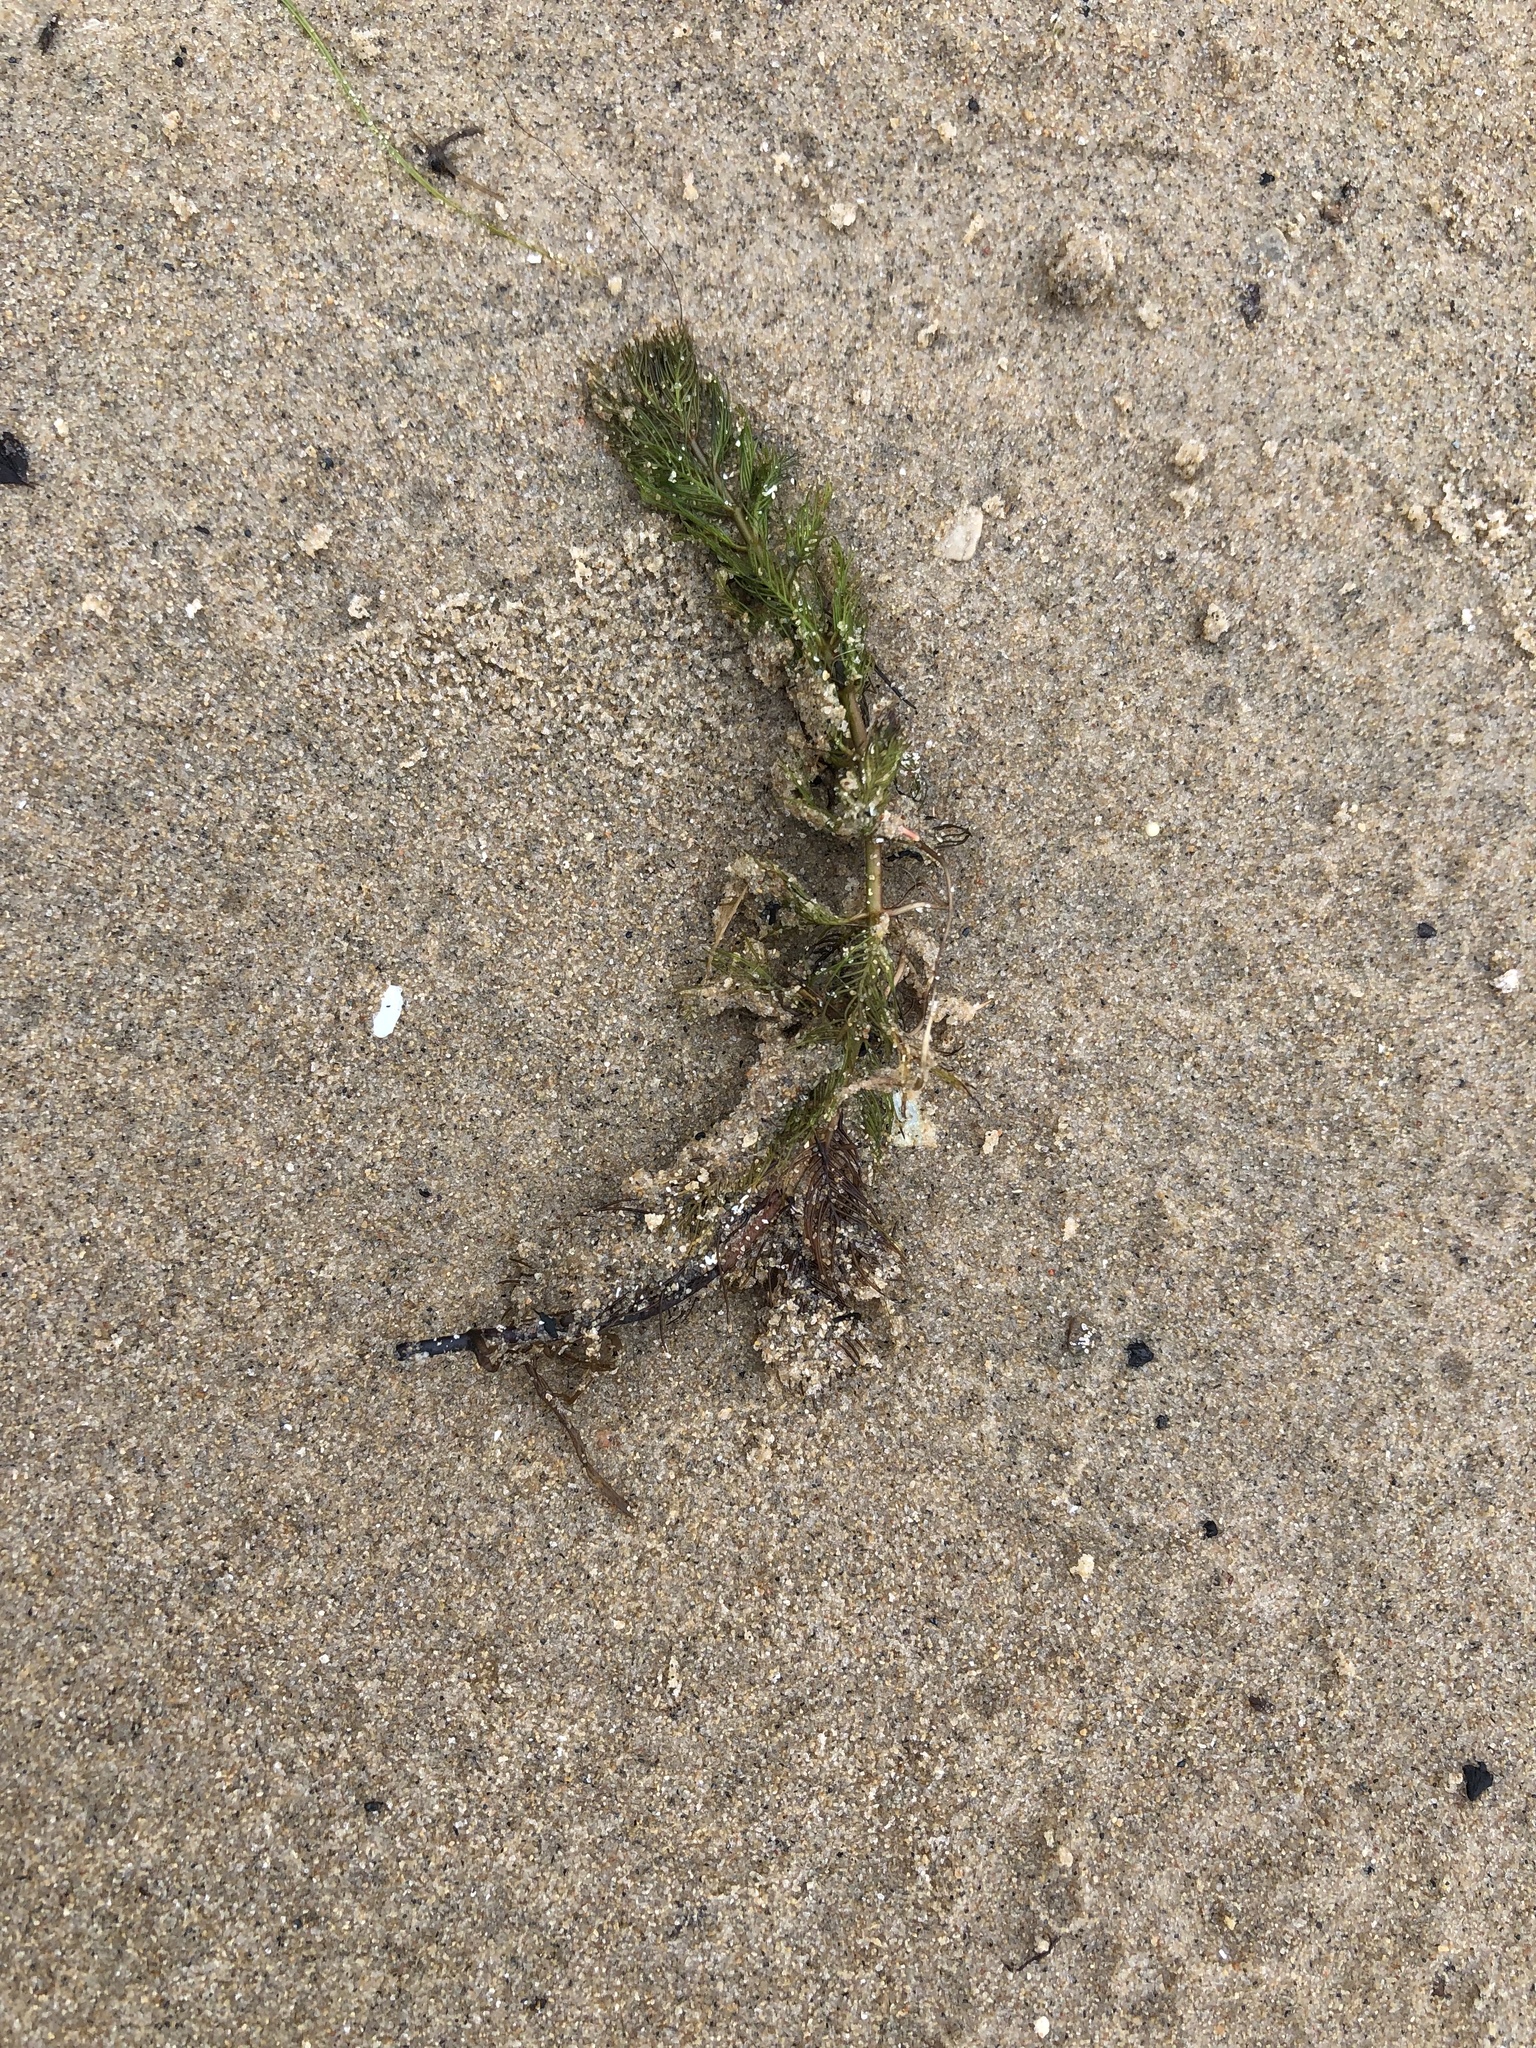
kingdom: Plantae
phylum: Tracheophyta
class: Magnoliopsida
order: Saxifragales
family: Haloragaceae
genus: Myriophyllum
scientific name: Myriophyllum spicatum
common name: Spiked water-milfoil
